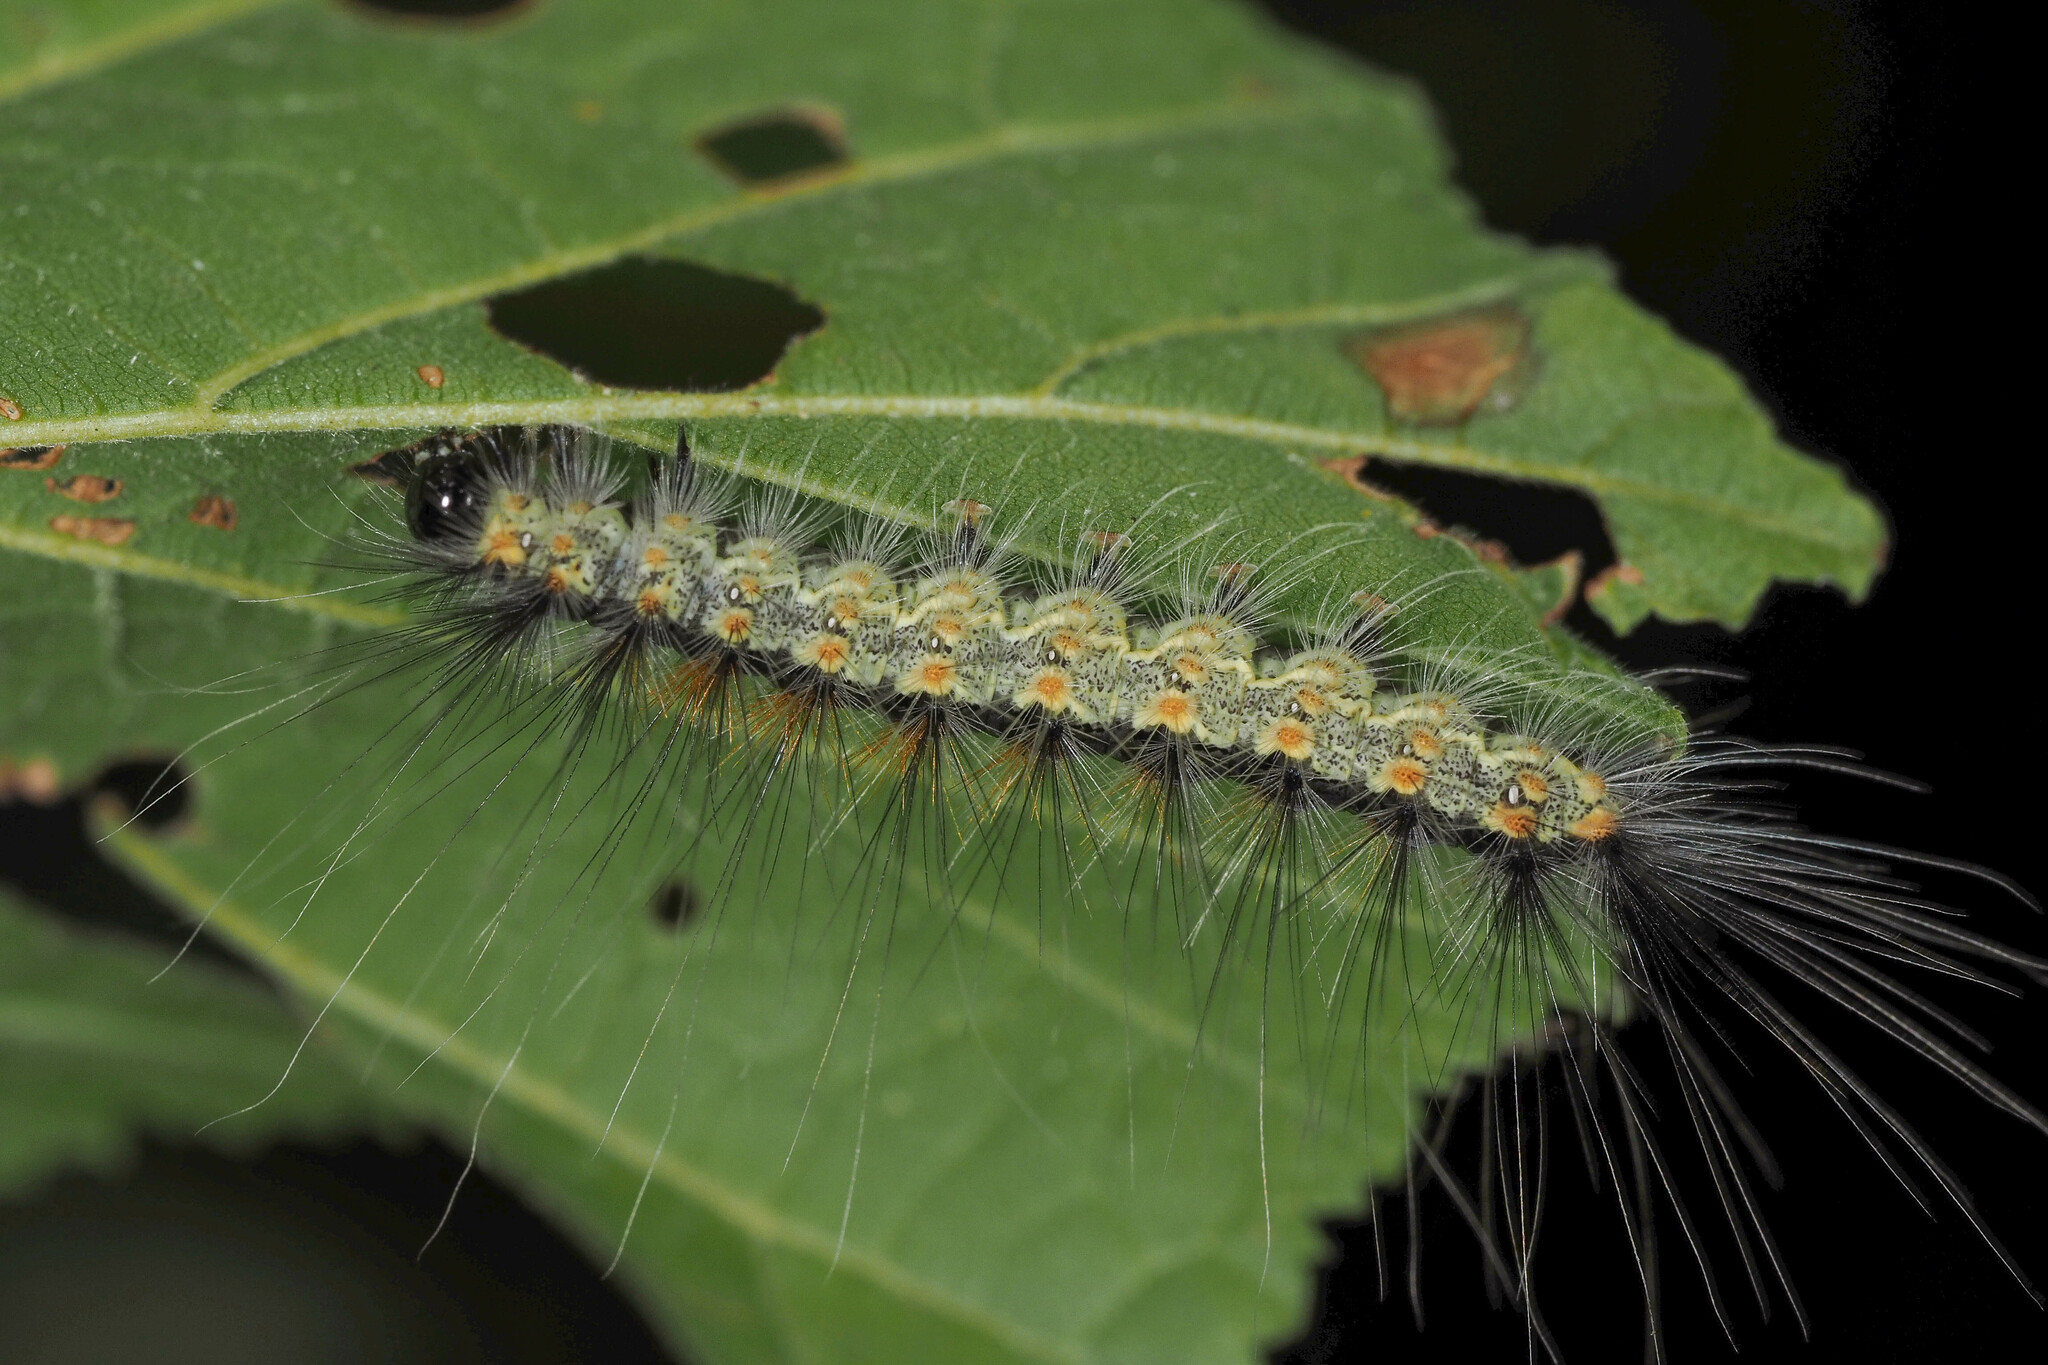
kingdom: Animalia
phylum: Arthropoda
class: Insecta
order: Lepidoptera
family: Erebidae
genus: Hyphantria
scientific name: Hyphantria cunea
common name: American white moth
